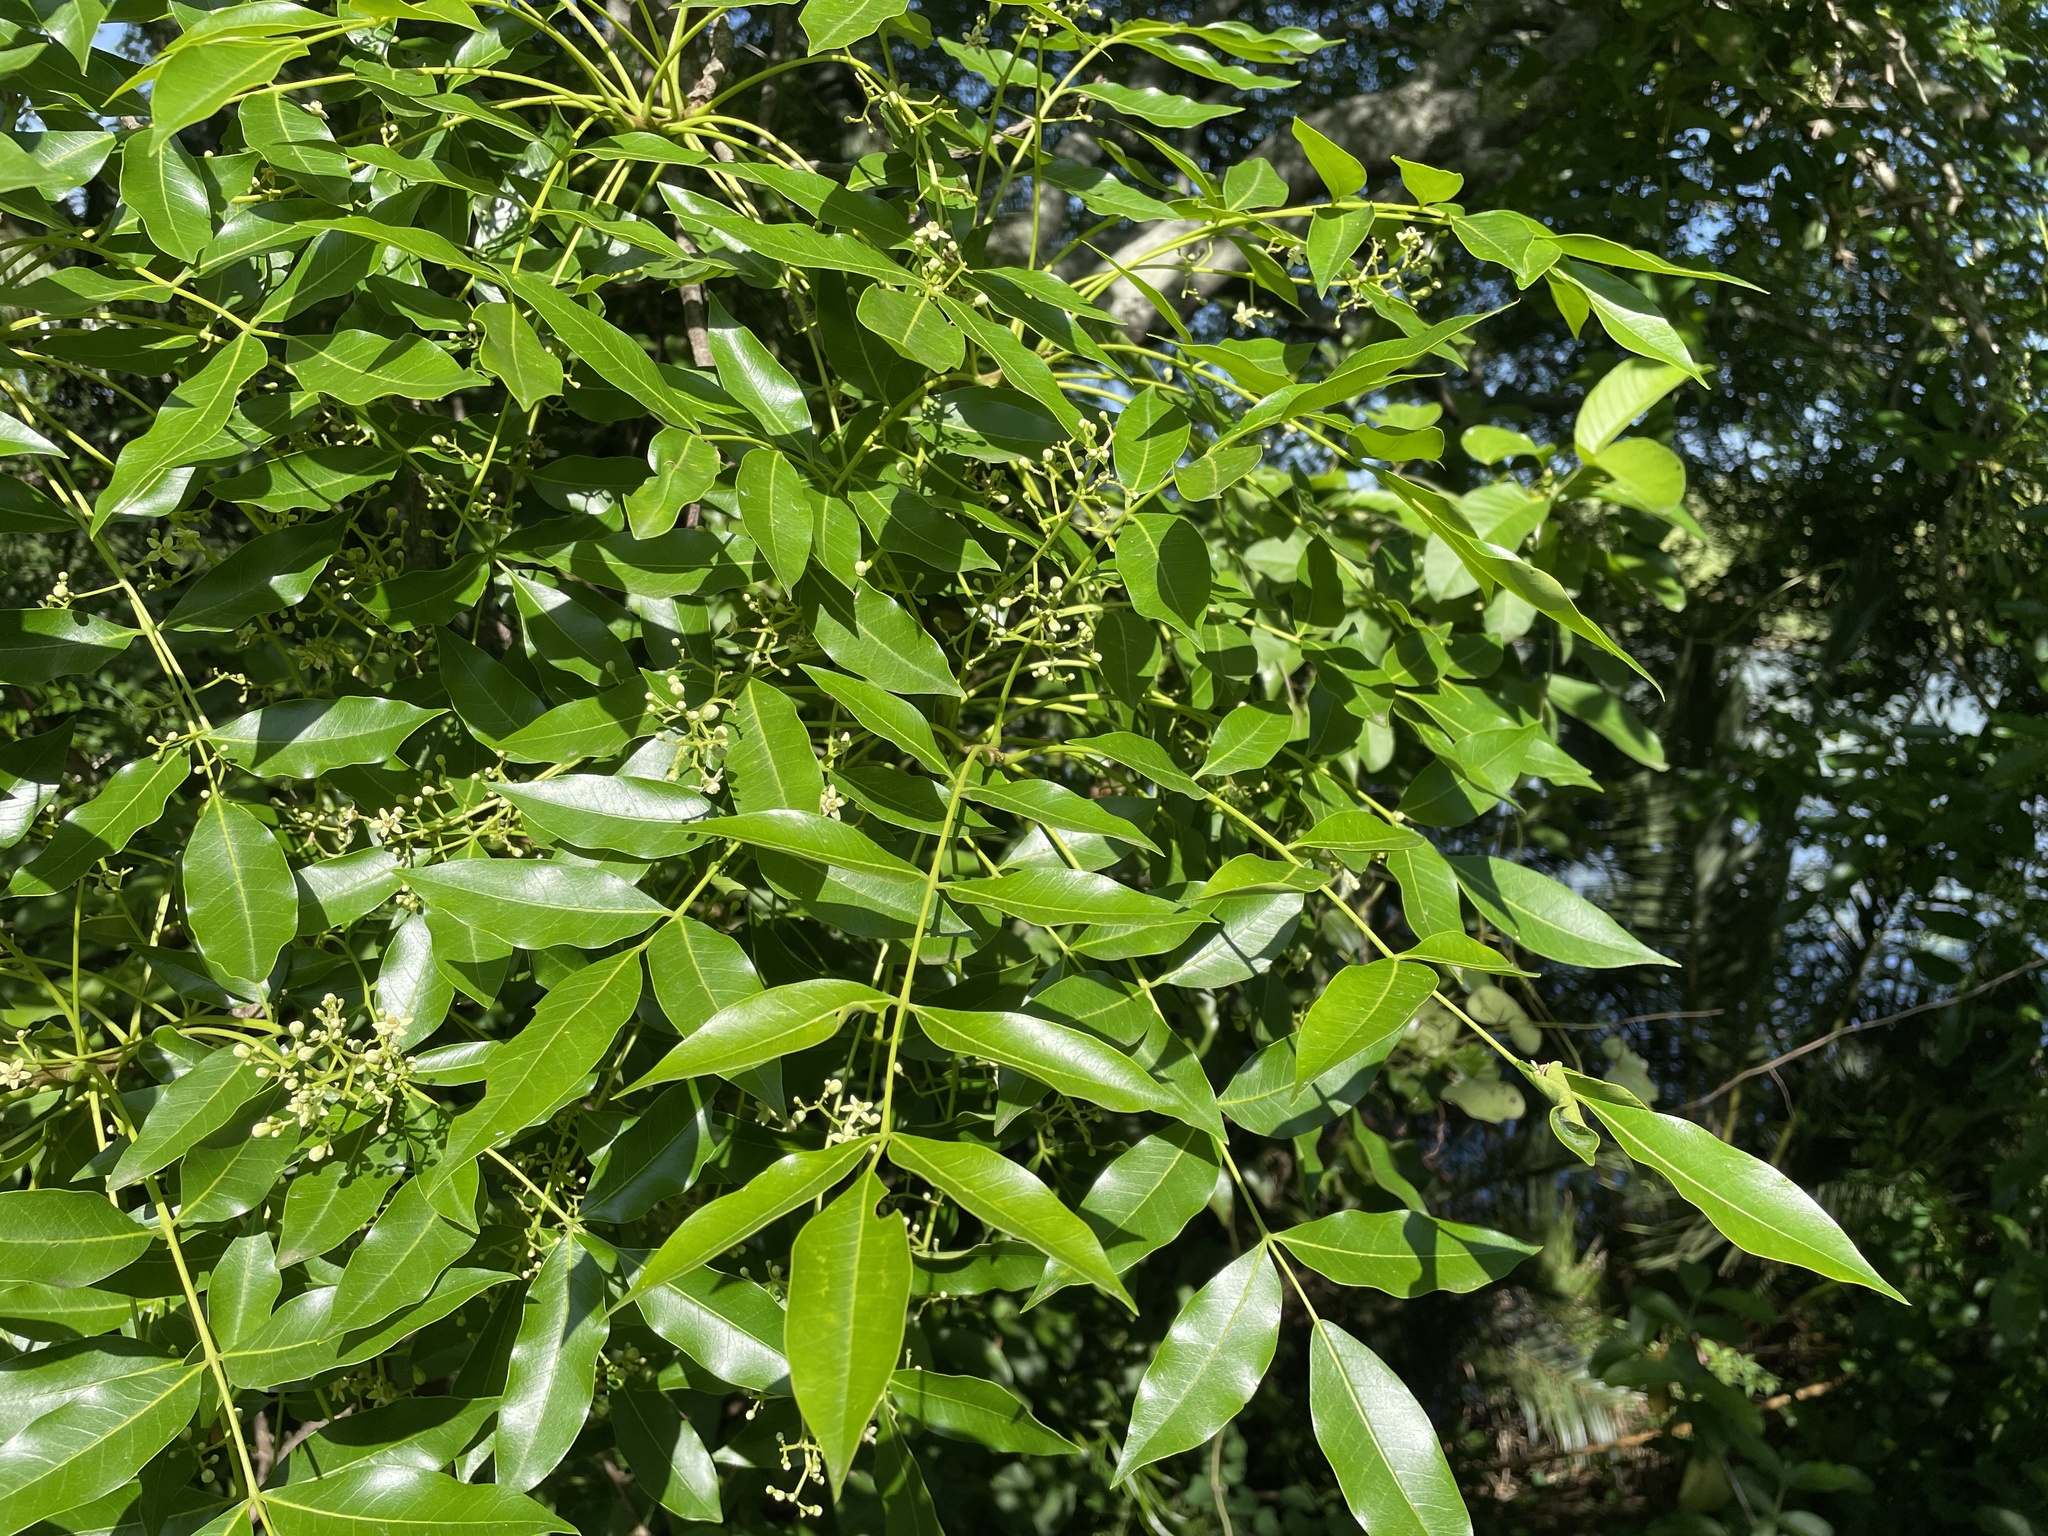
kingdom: Plantae
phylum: Tracheophyta
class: Magnoliopsida
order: Sapindales
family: Meliaceae
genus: Ekebergia
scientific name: Ekebergia capensis
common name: Cape-ash
